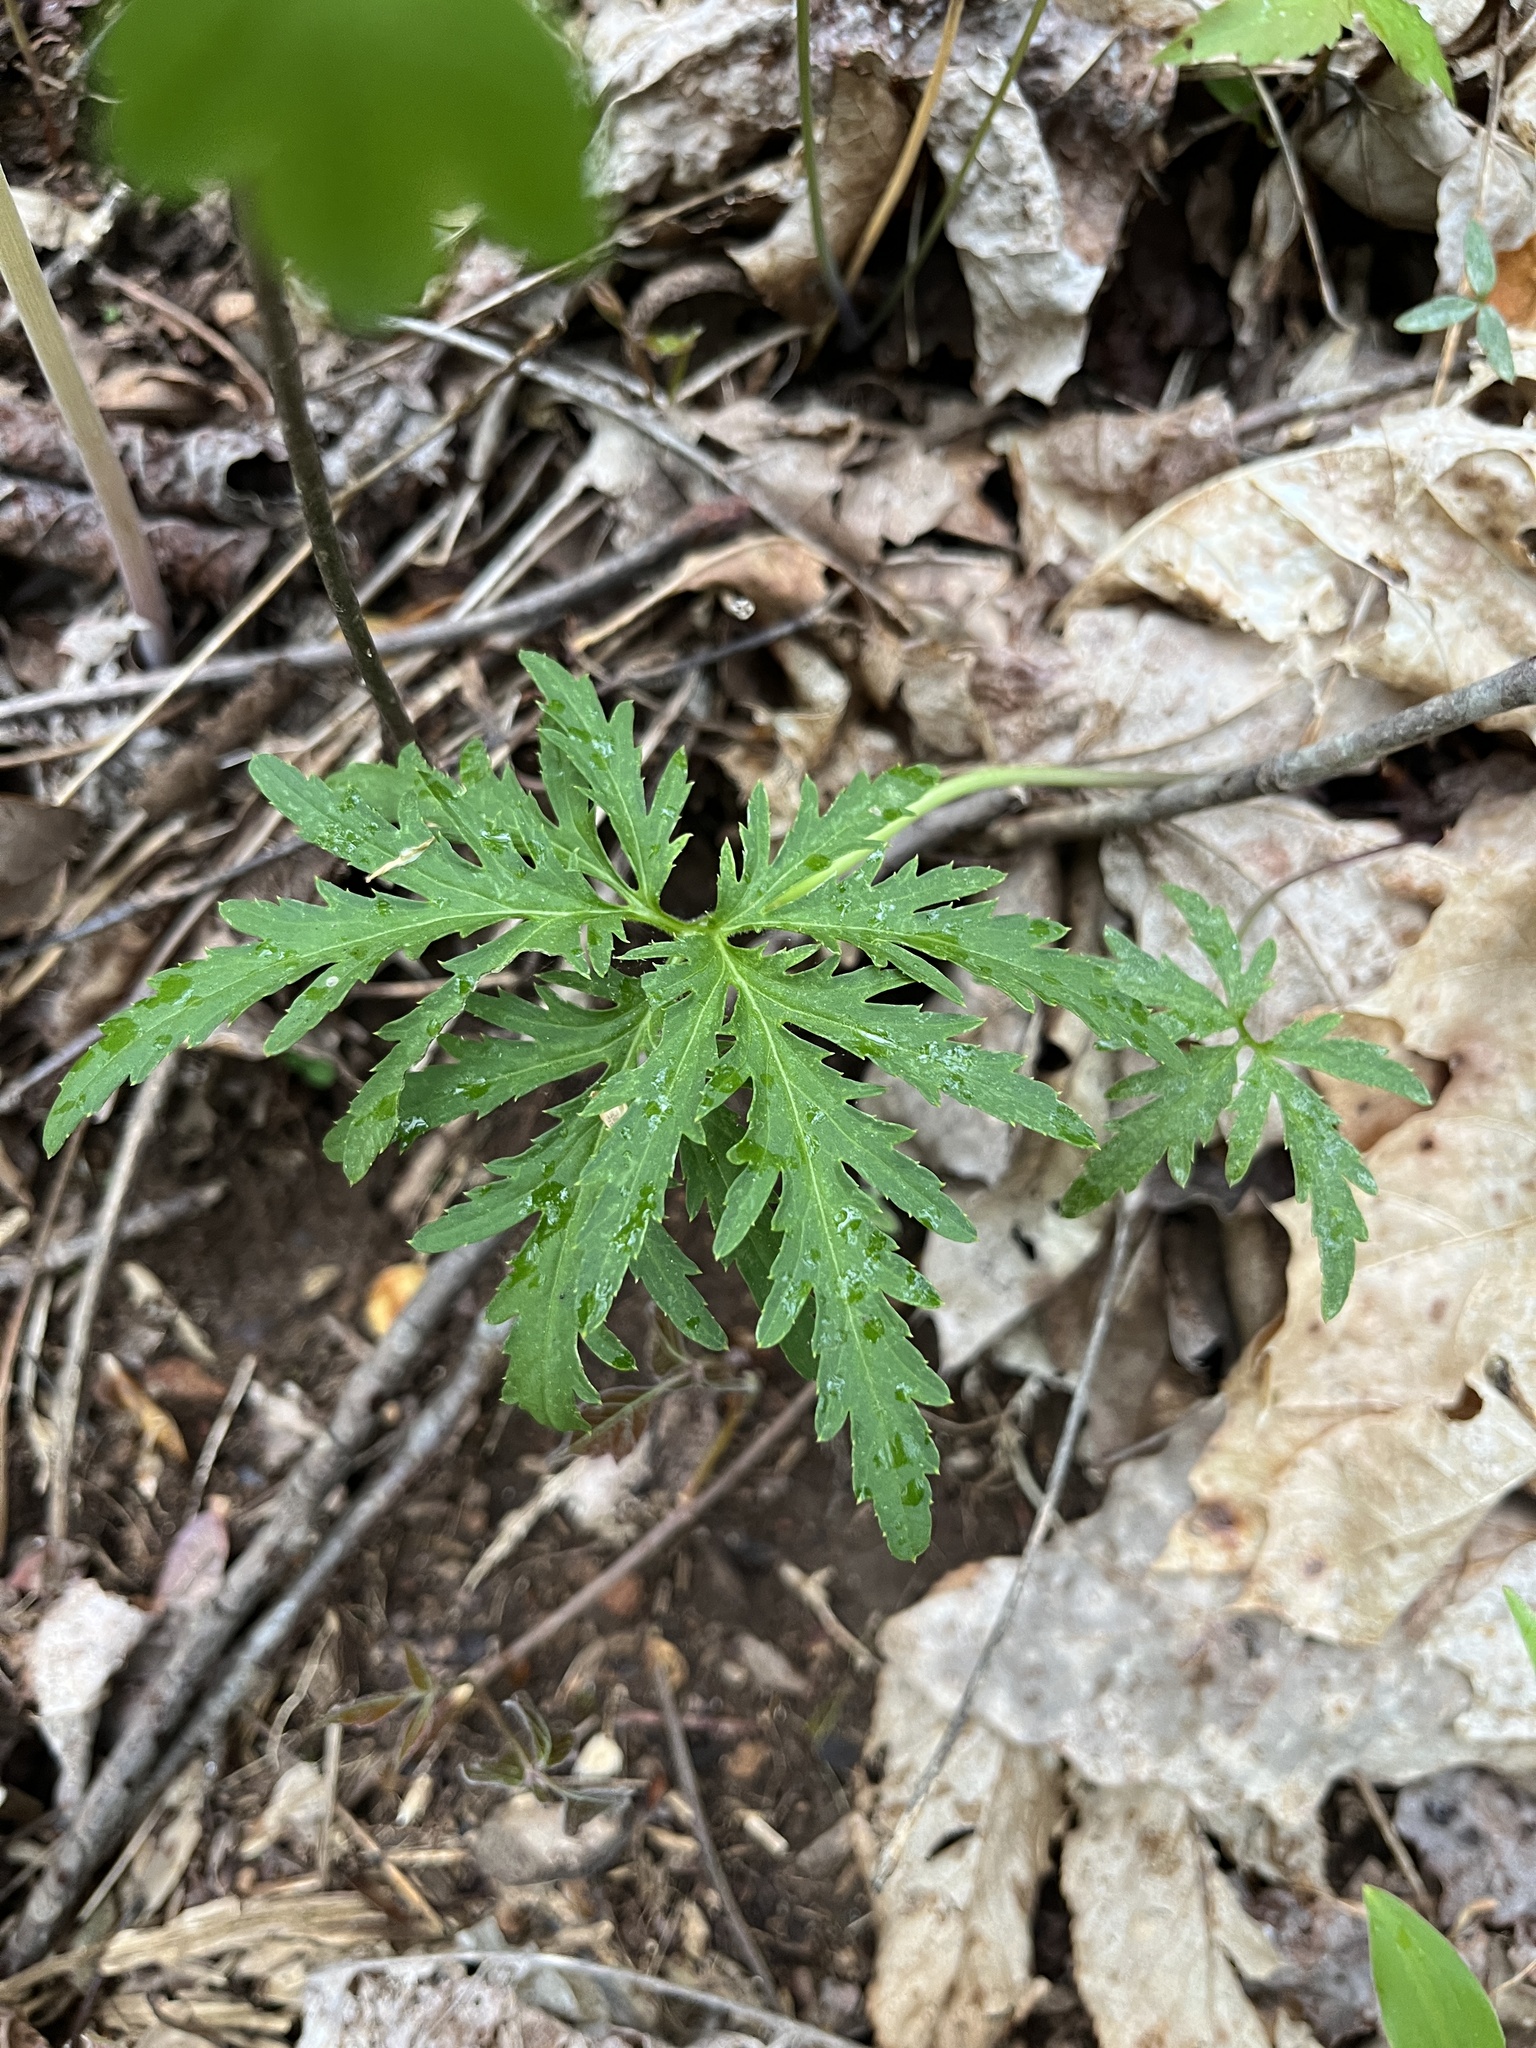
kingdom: Plantae
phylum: Tracheophyta
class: Magnoliopsida
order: Brassicales
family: Brassicaceae
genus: Cardamine
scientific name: Cardamine concatenata
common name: Cut-leaf toothcup
